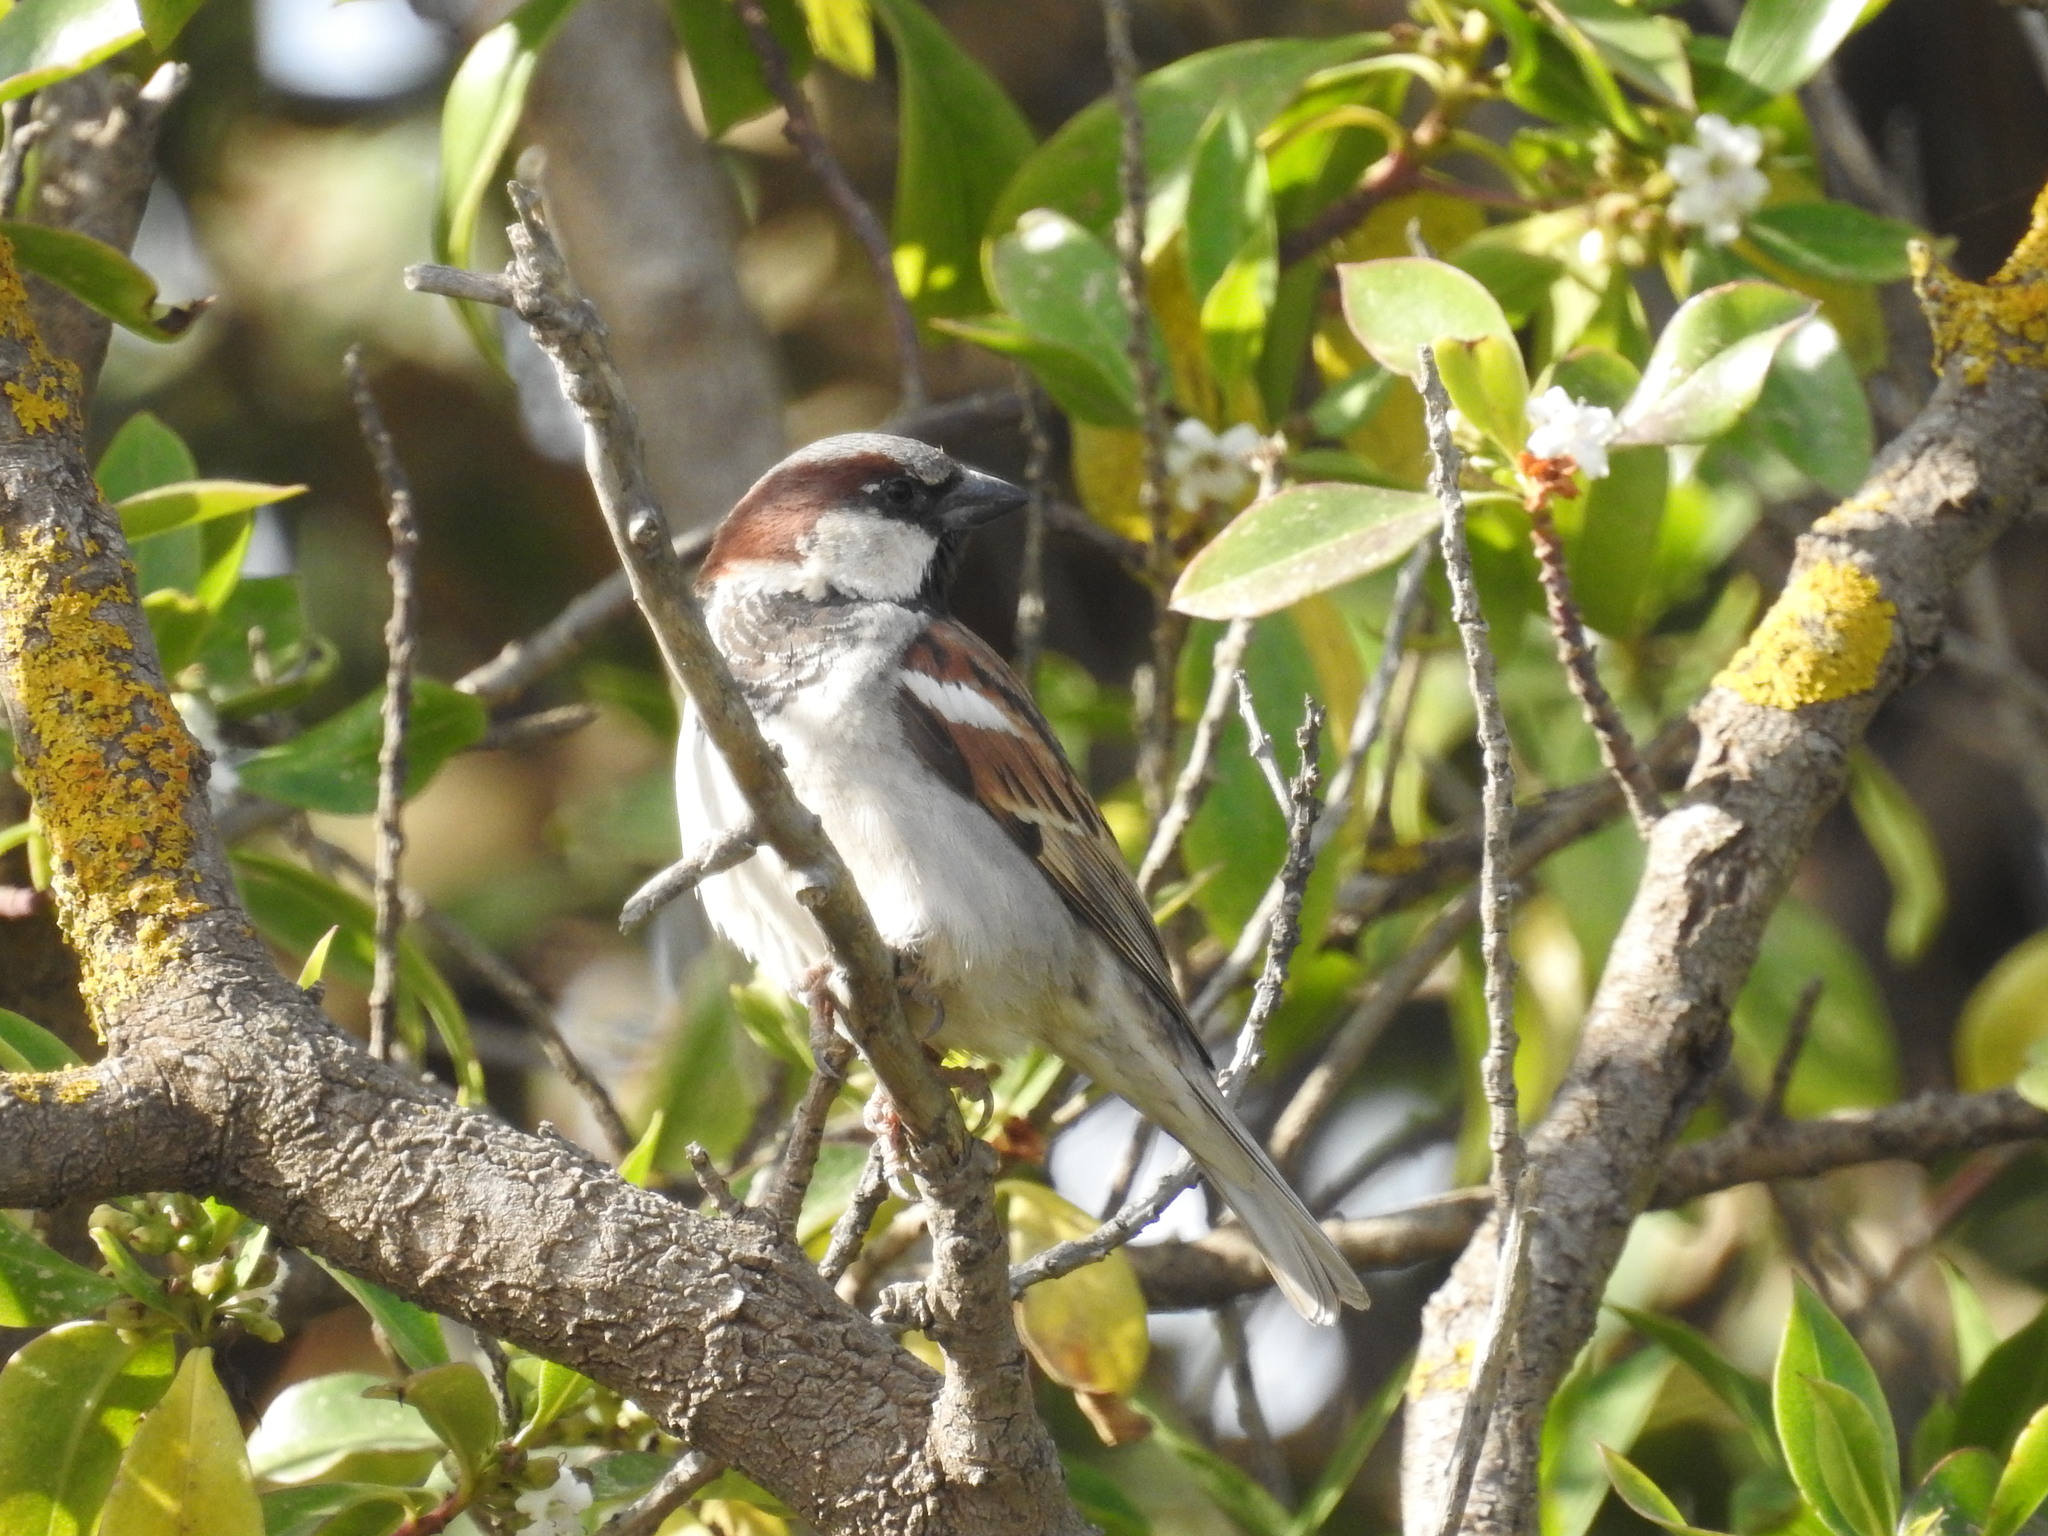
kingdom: Animalia
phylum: Chordata
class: Aves
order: Passeriformes
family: Passeridae
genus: Passer
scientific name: Passer domesticus
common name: House sparrow
